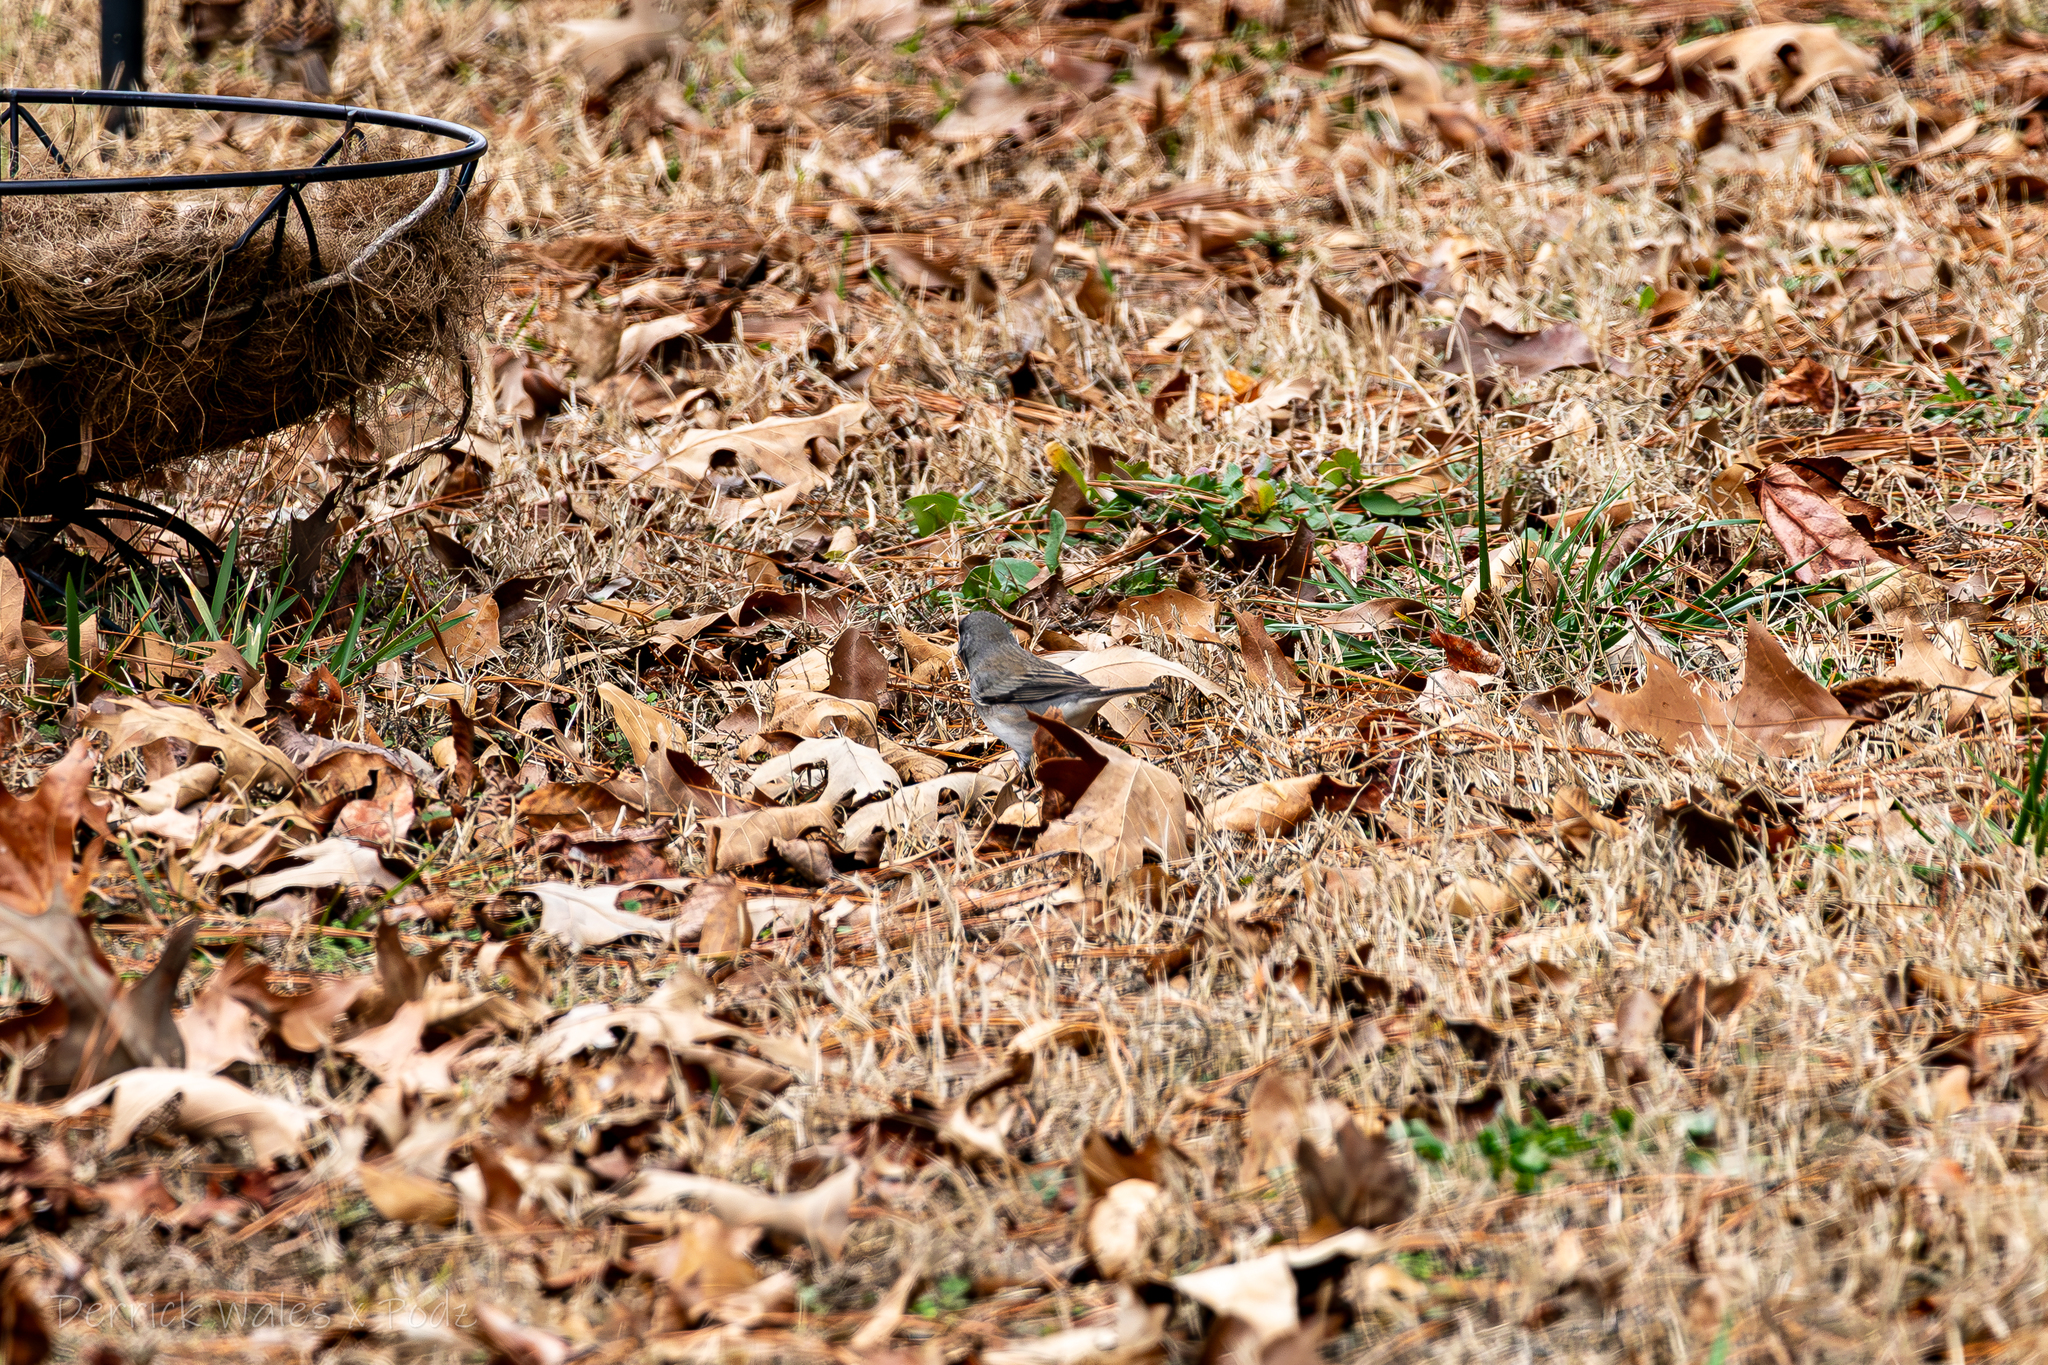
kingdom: Animalia
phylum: Chordata
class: Aves
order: Passeriformes
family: Passerellidae
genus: Junco
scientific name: Junco hyemalis
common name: Dark-eyed junco
